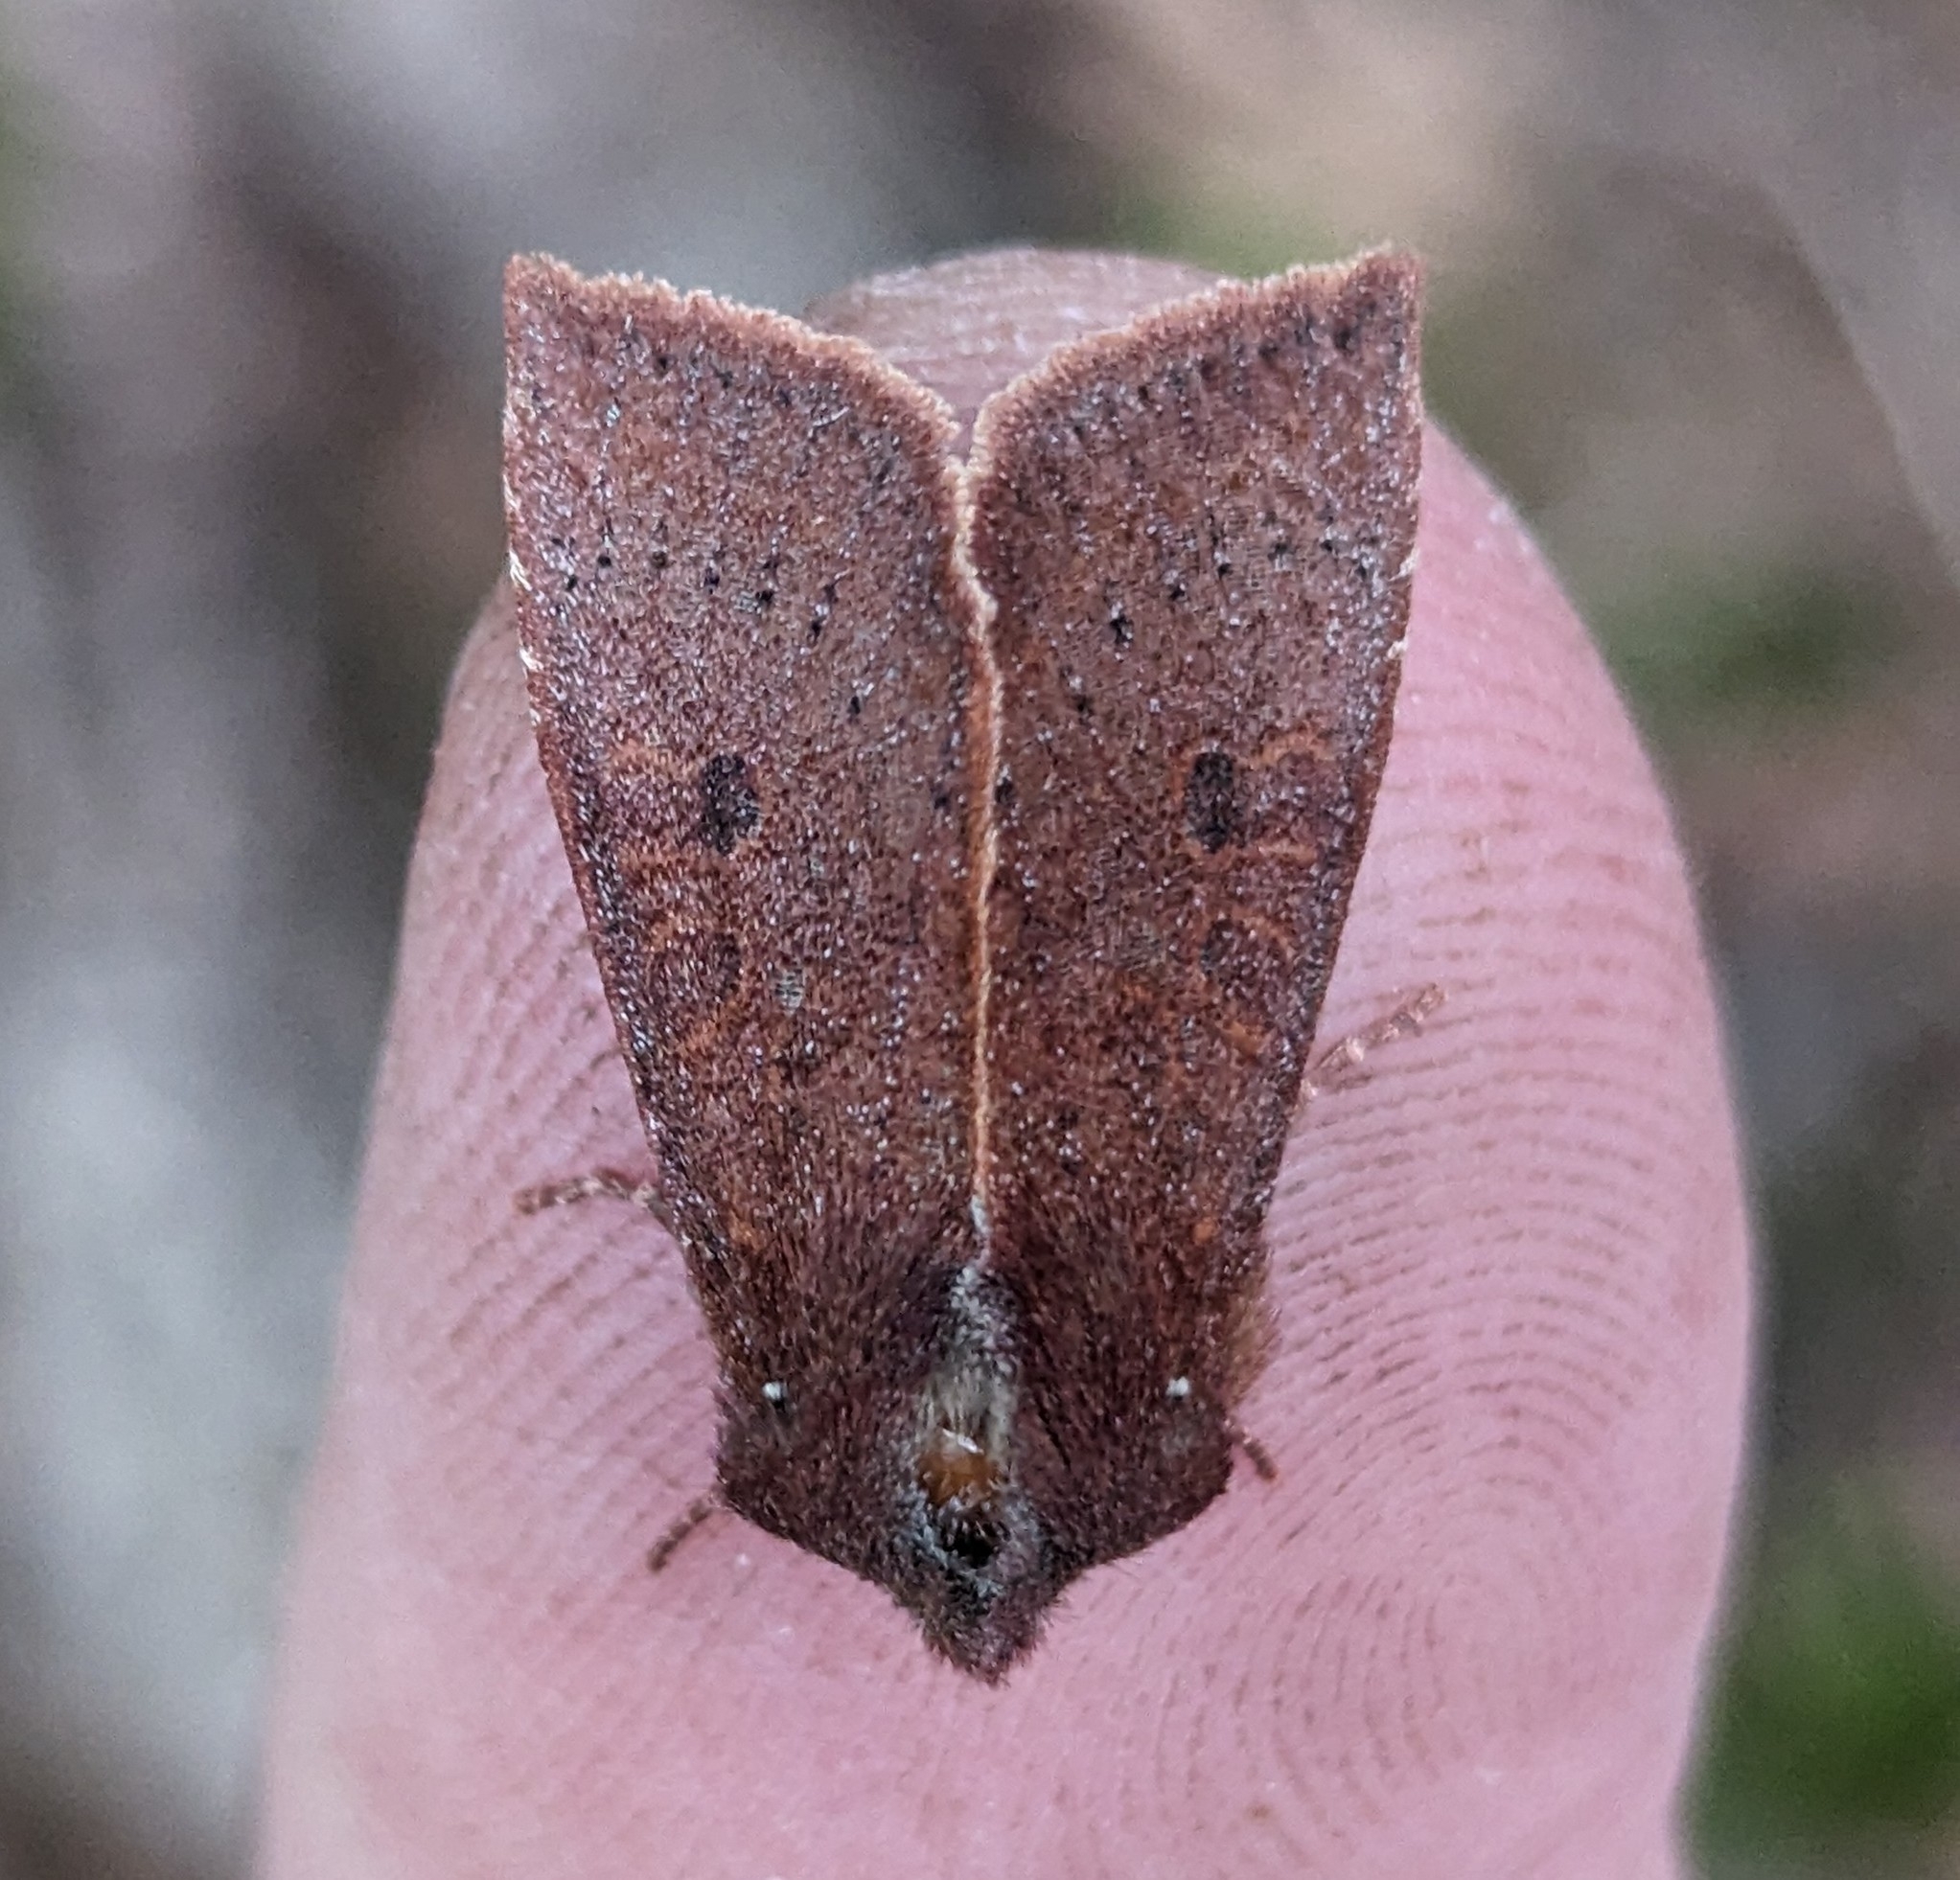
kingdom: Animalia
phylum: Arthropoda
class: Insecta
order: Lepidoptera
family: Noctuidae
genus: Orthosia
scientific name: Orthosia transparens
